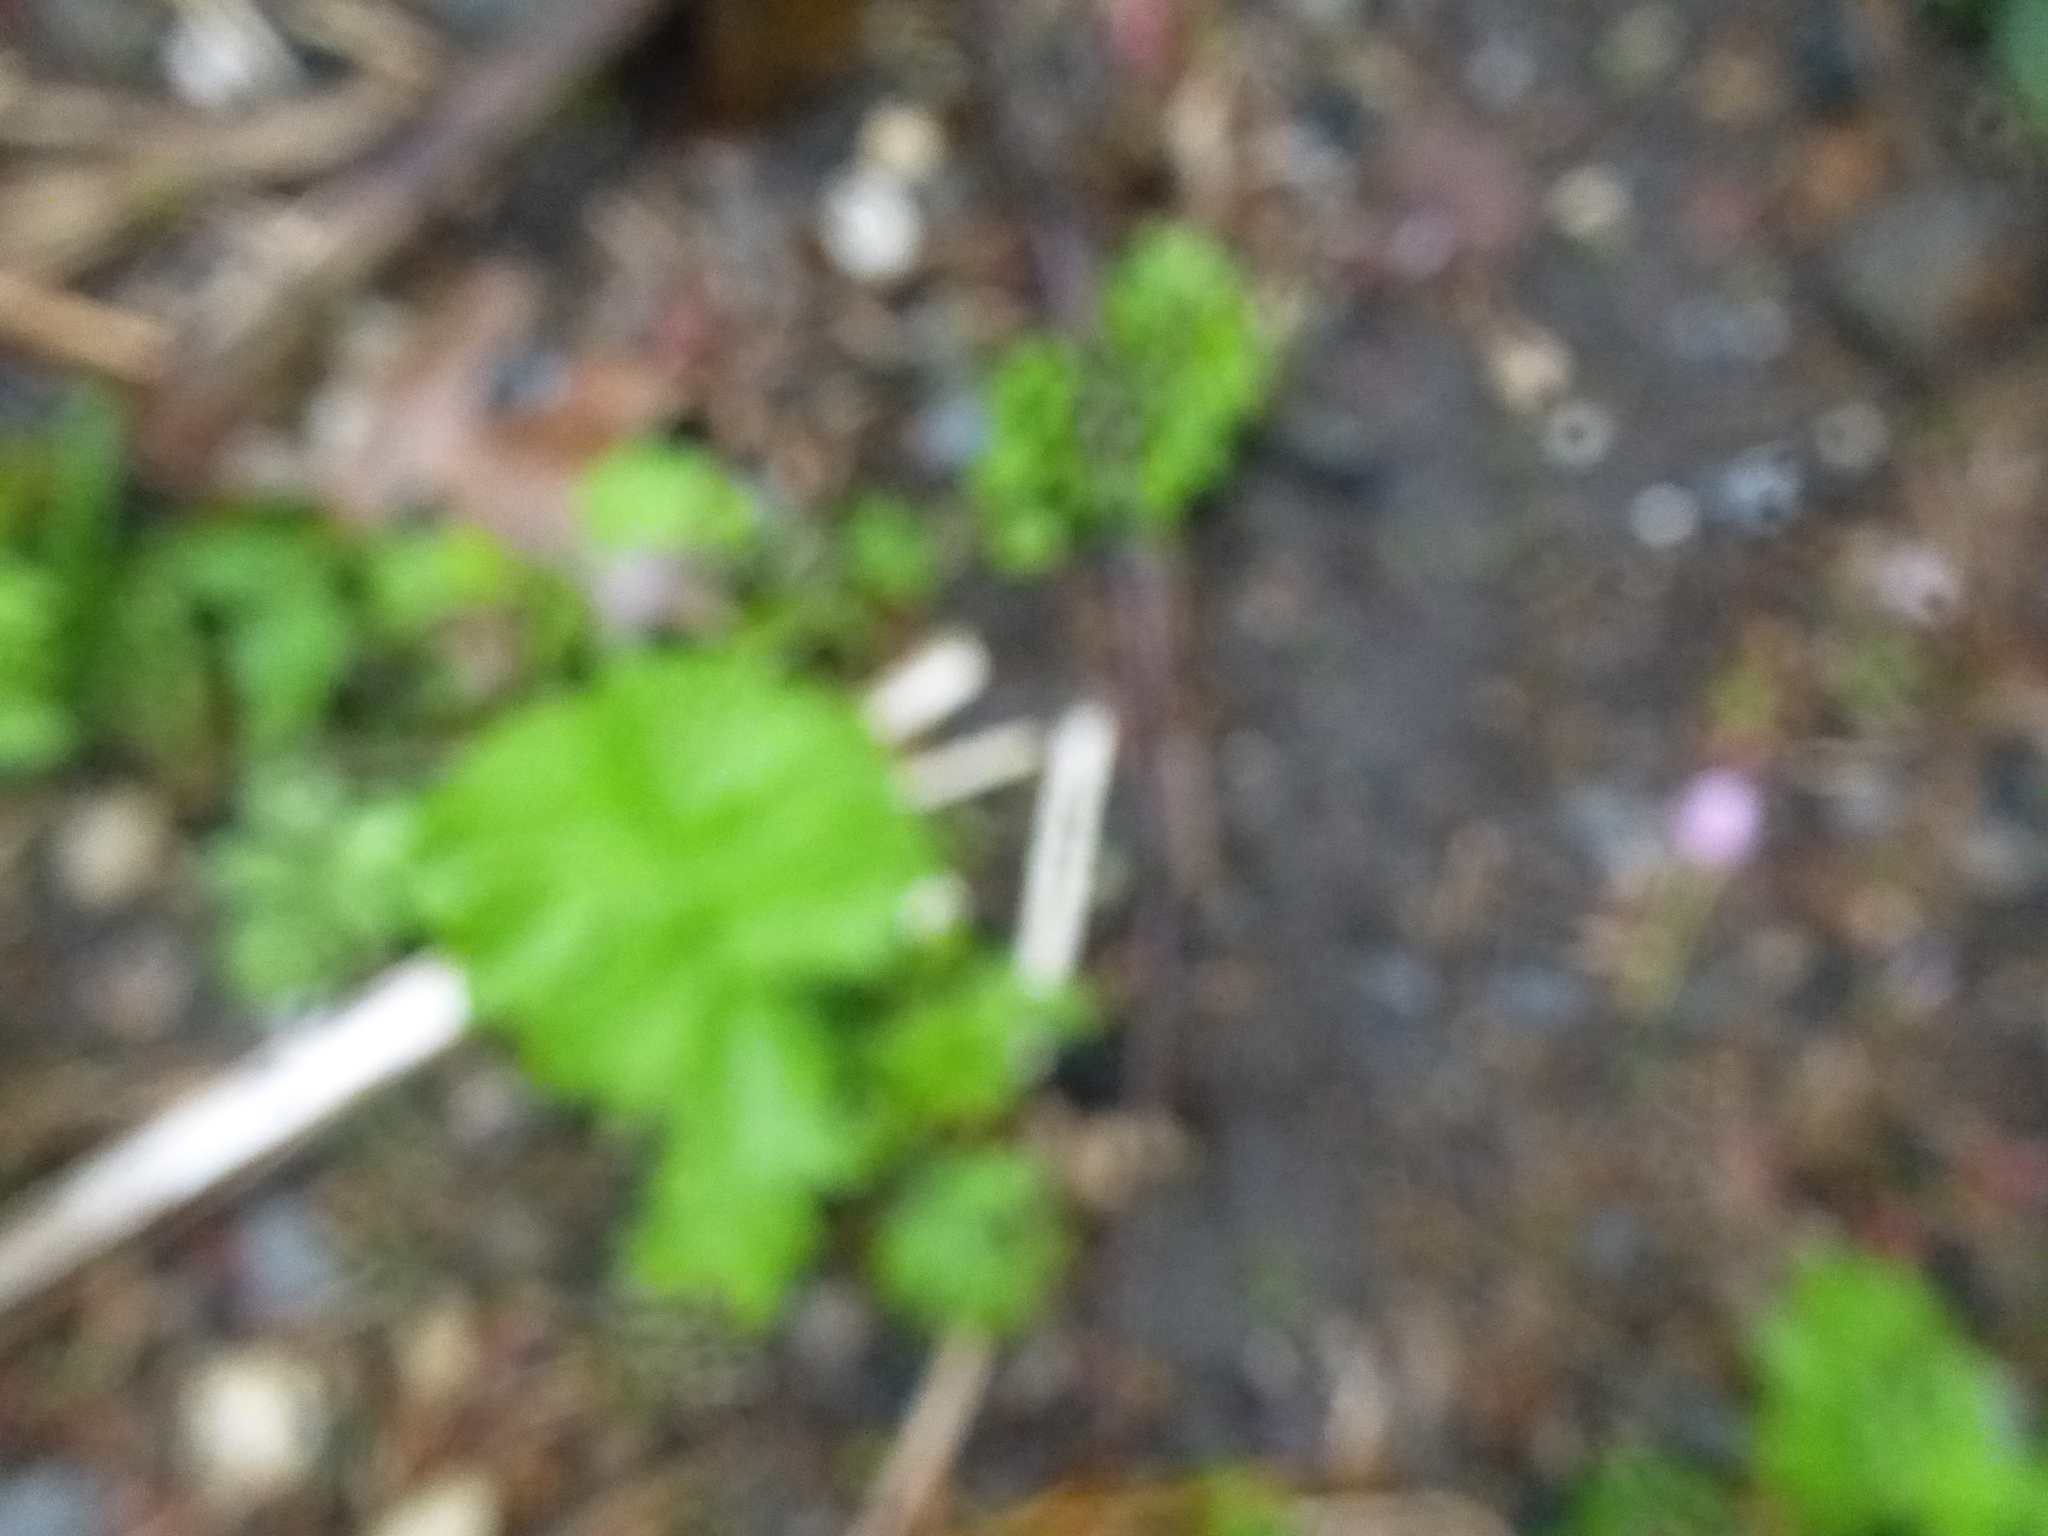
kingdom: Plantae
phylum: Tracheophyta
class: Magnoliopsida
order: Apiales
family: Apiaceae
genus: Pastinaca
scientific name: Pastinaca sativa
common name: Wild parsnip
